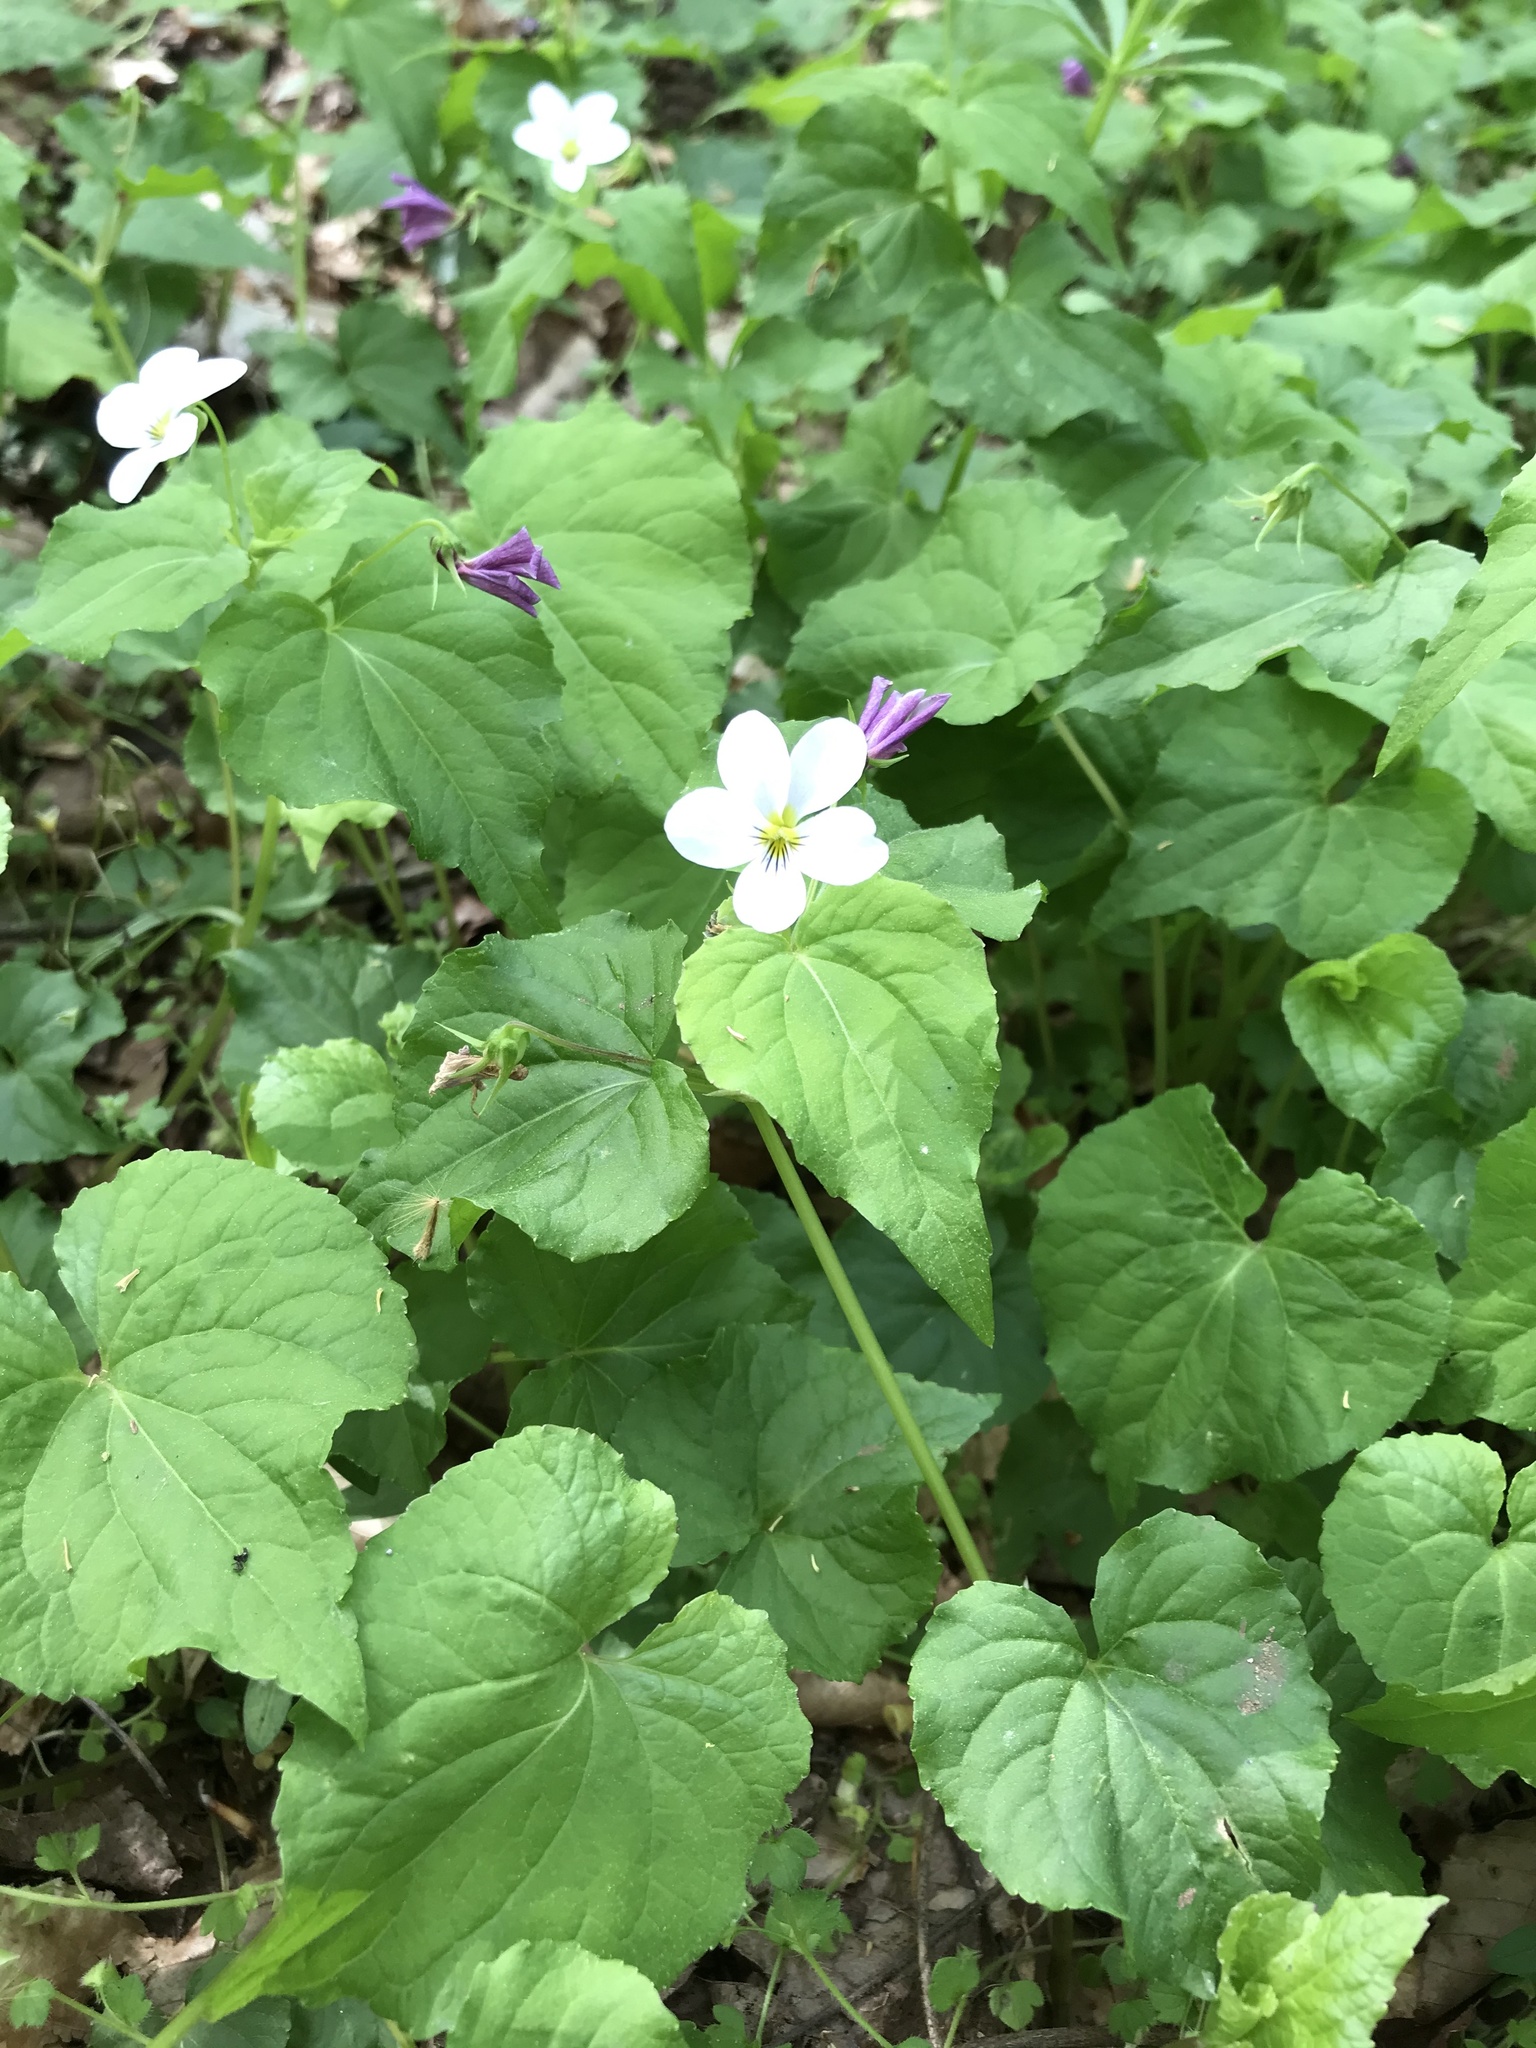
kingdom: Plantae
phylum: Tracheophyta
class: Magnoliopsida
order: Malpighiales
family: Violaceae
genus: Viola
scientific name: Viola canadensis
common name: Canada violet
